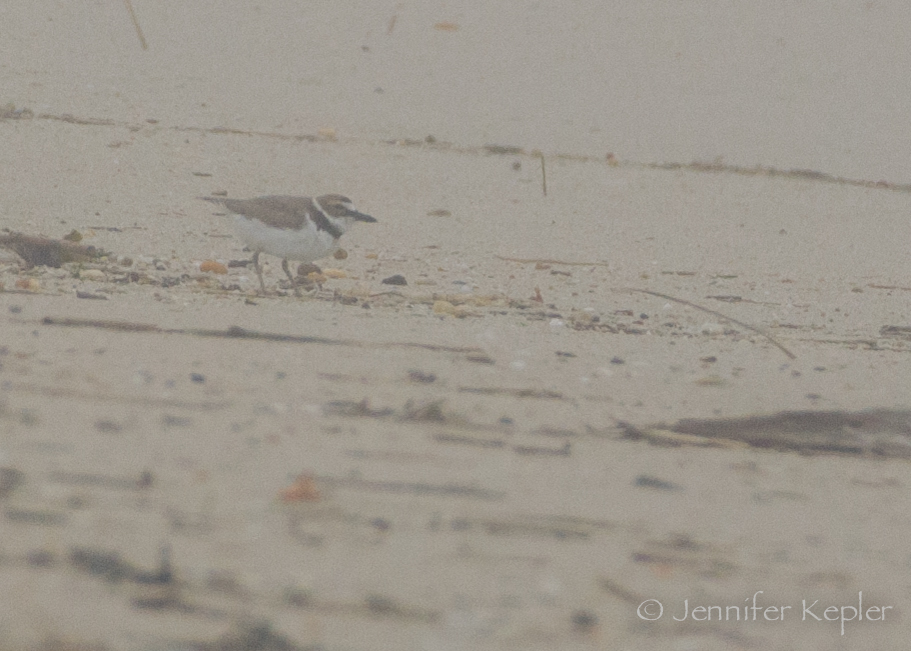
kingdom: Animalia
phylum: Chordata
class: Aves
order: Charadriiformes
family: Charadriidae
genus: Anarhynchus
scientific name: Anarhynchus
